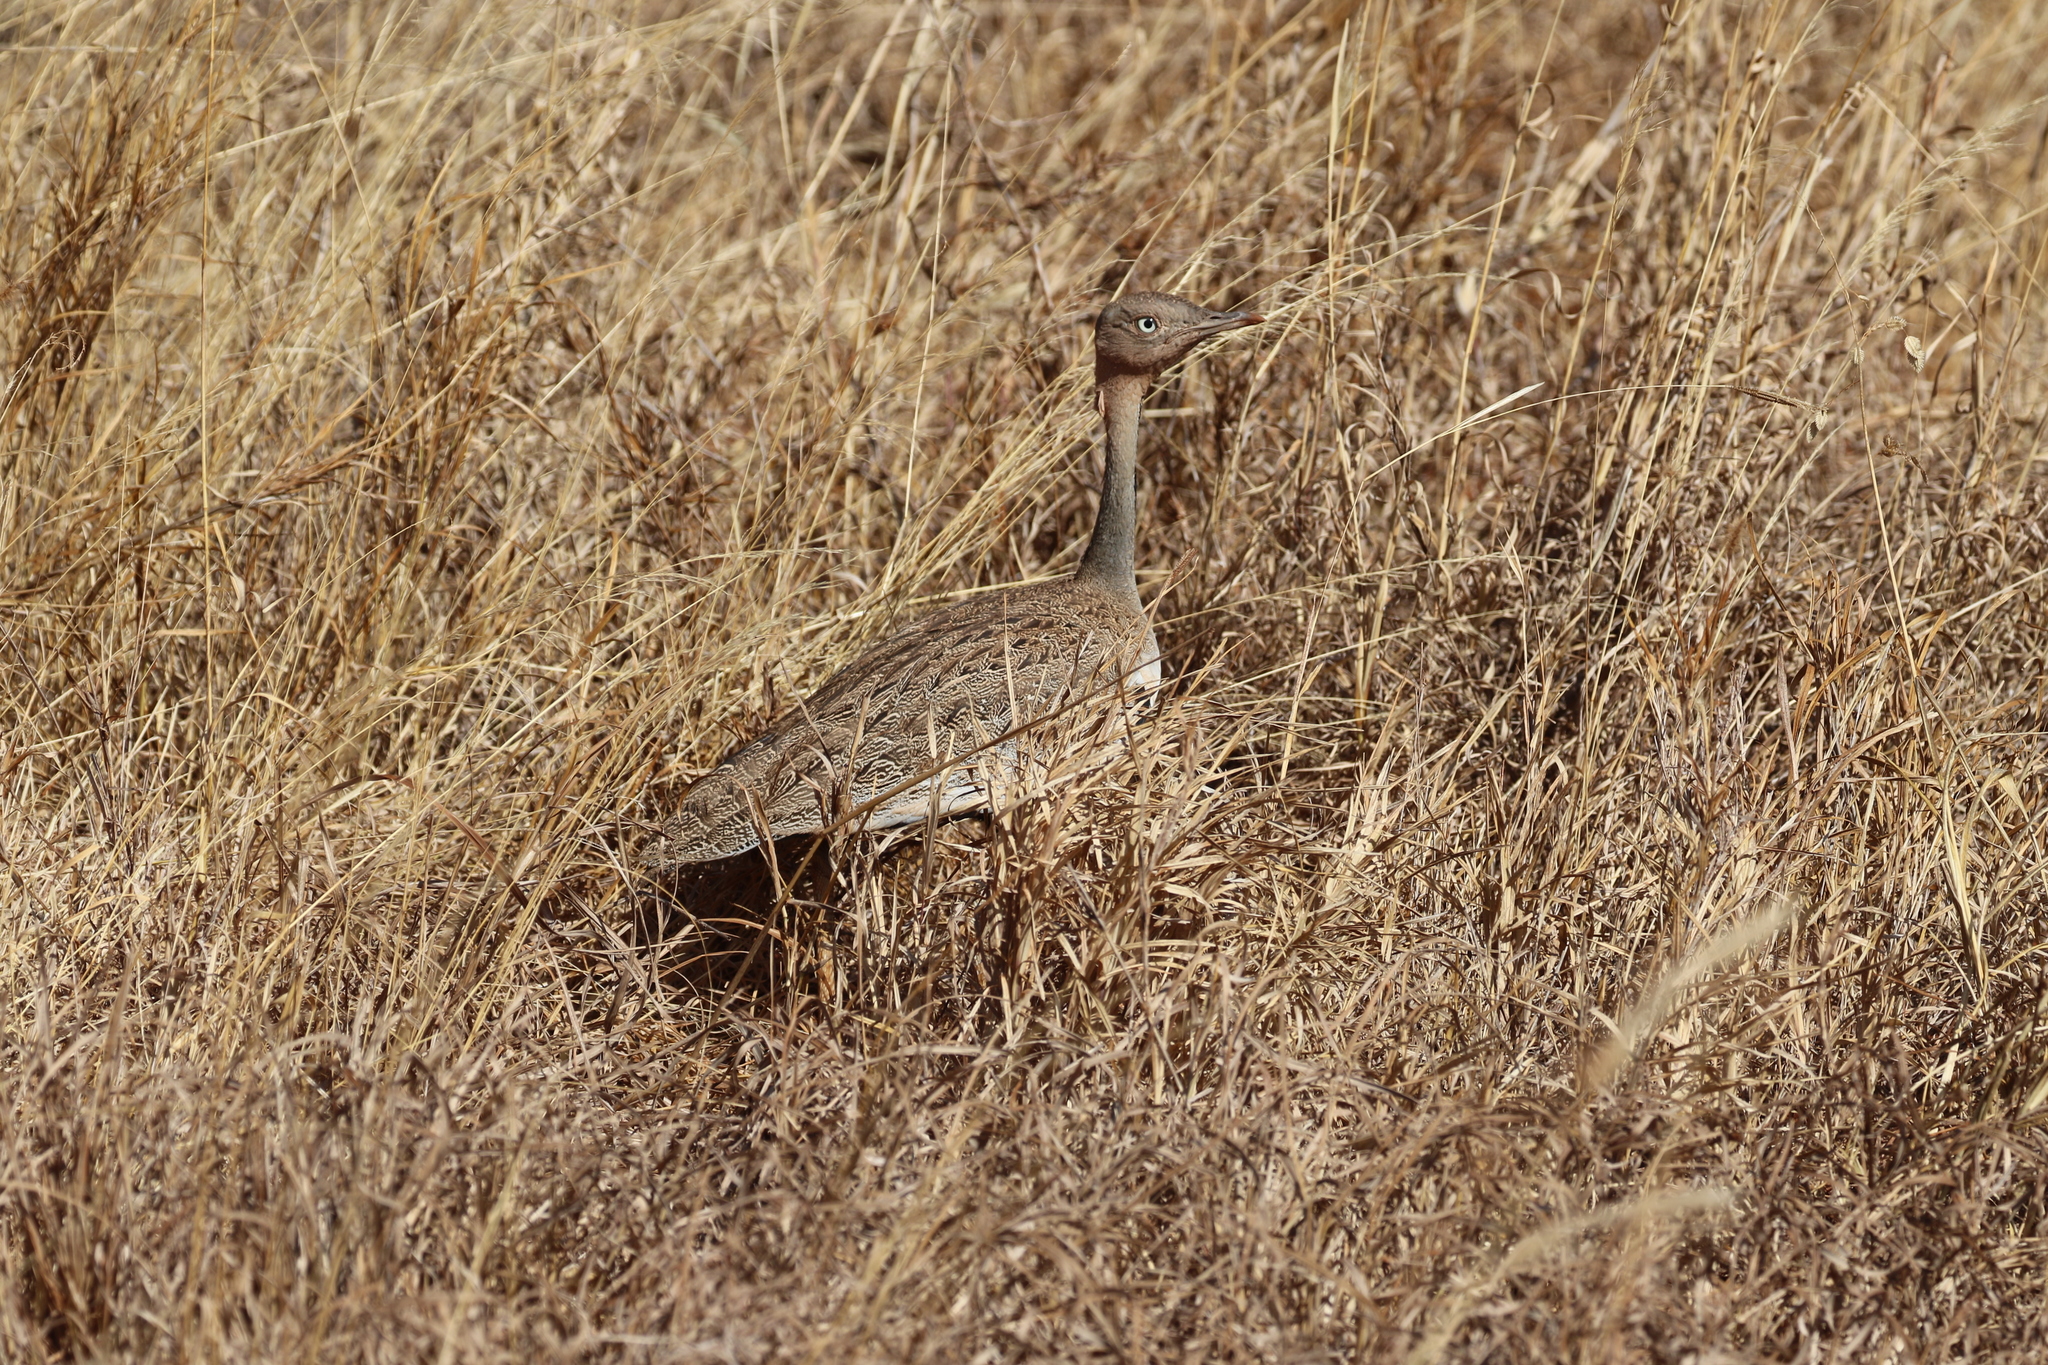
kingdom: Animalia
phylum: Chordata
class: Aves
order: Otidiformes
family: Otididae
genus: Lophotis
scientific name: Lophotis gindiana
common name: Buff-crested bustard
